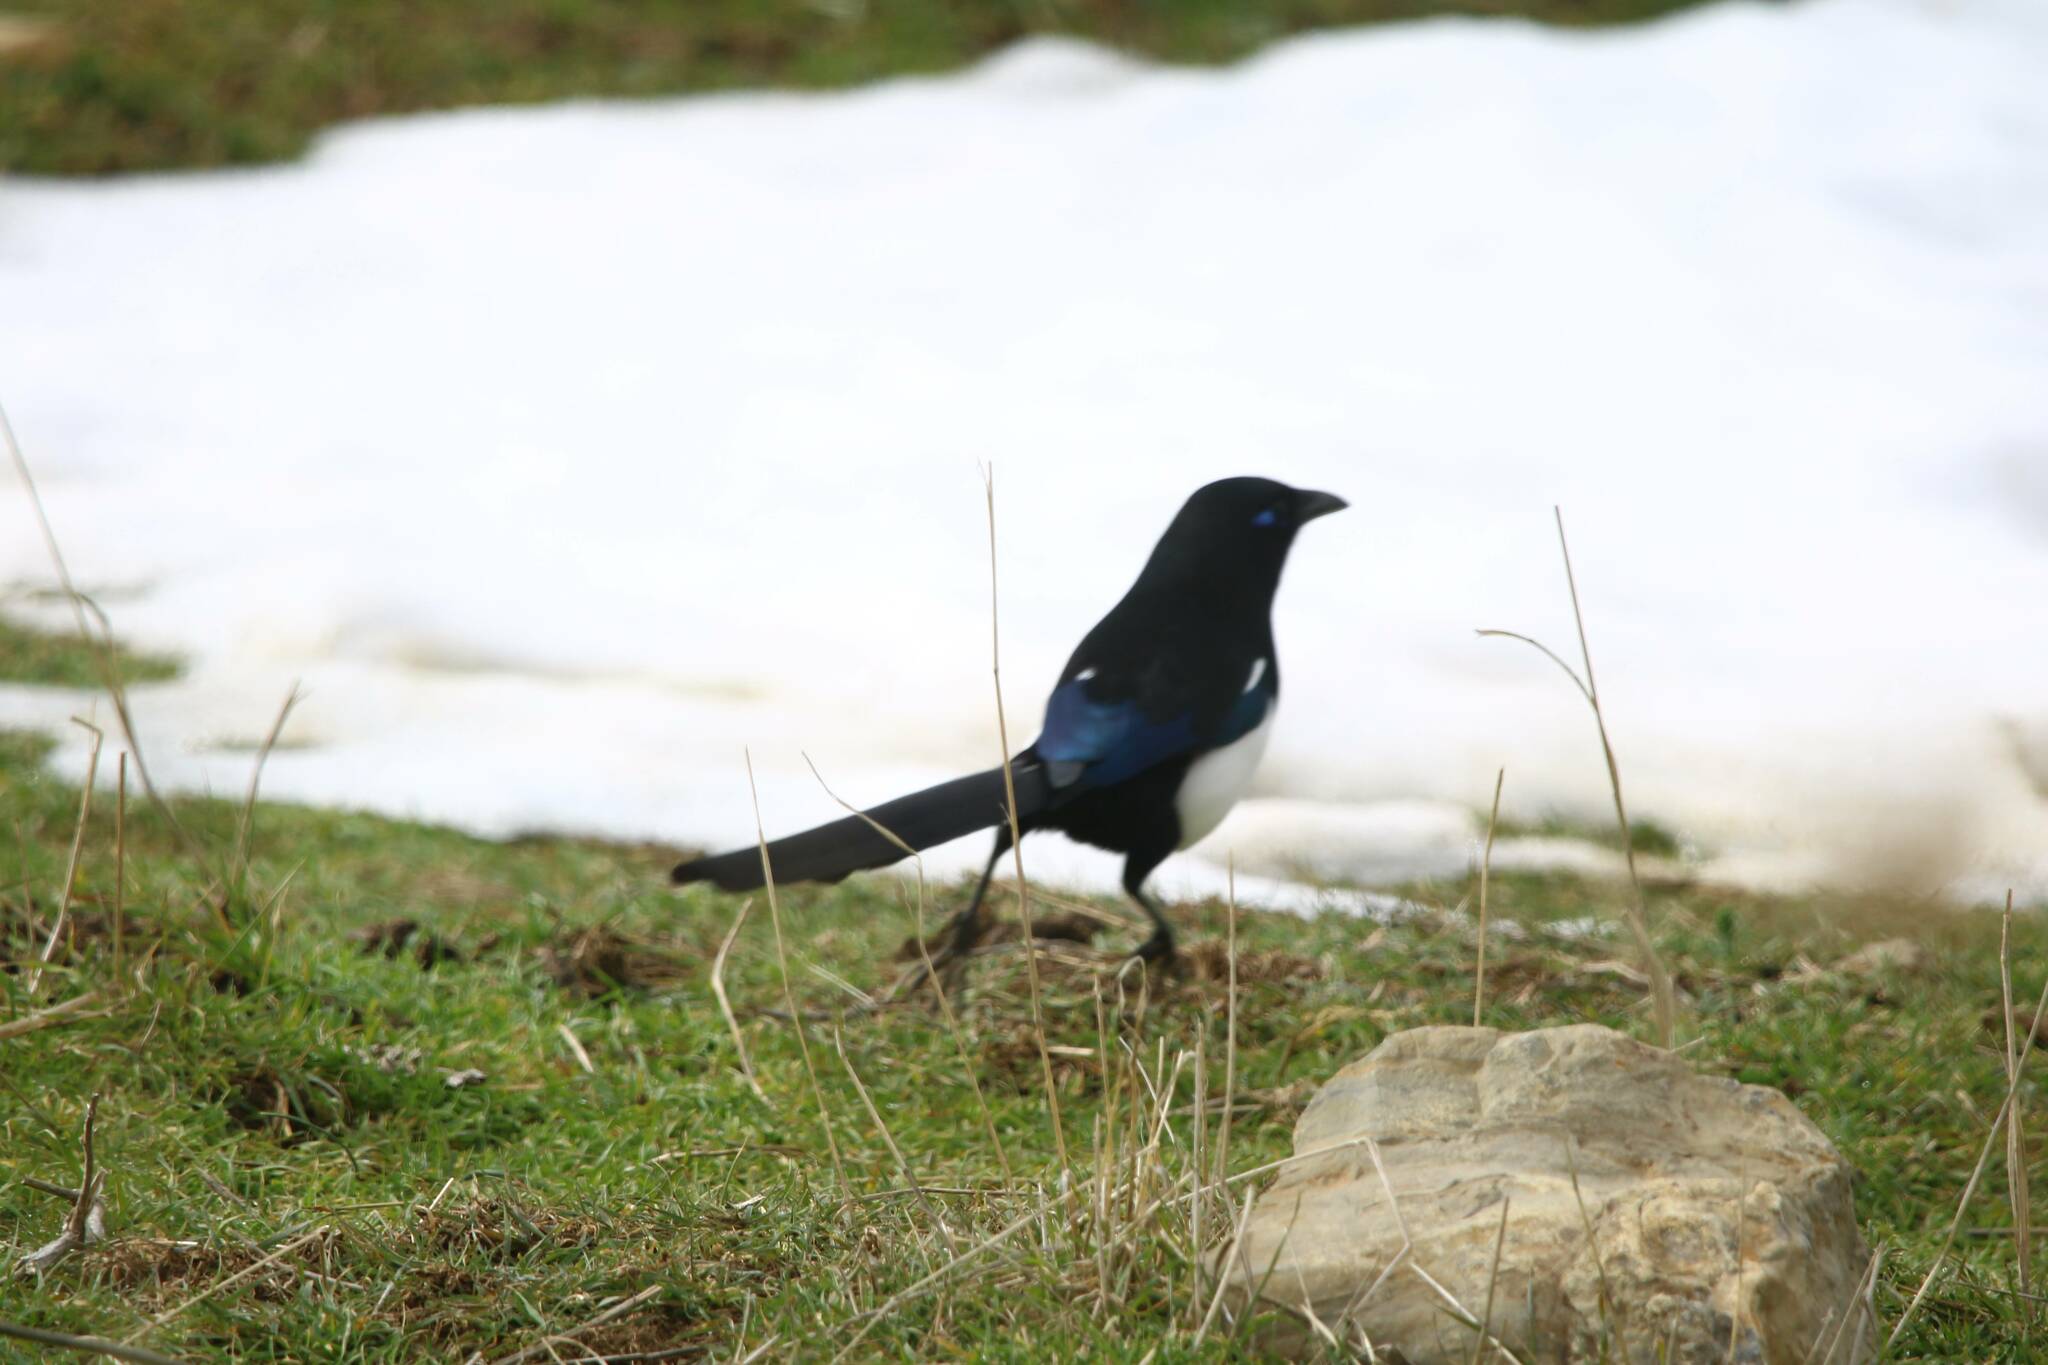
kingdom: Animalia
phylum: Chordata
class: Aves
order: Passeriformes
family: Corvidae
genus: Pica
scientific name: Pica mauritanica
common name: Maghreb magpie
